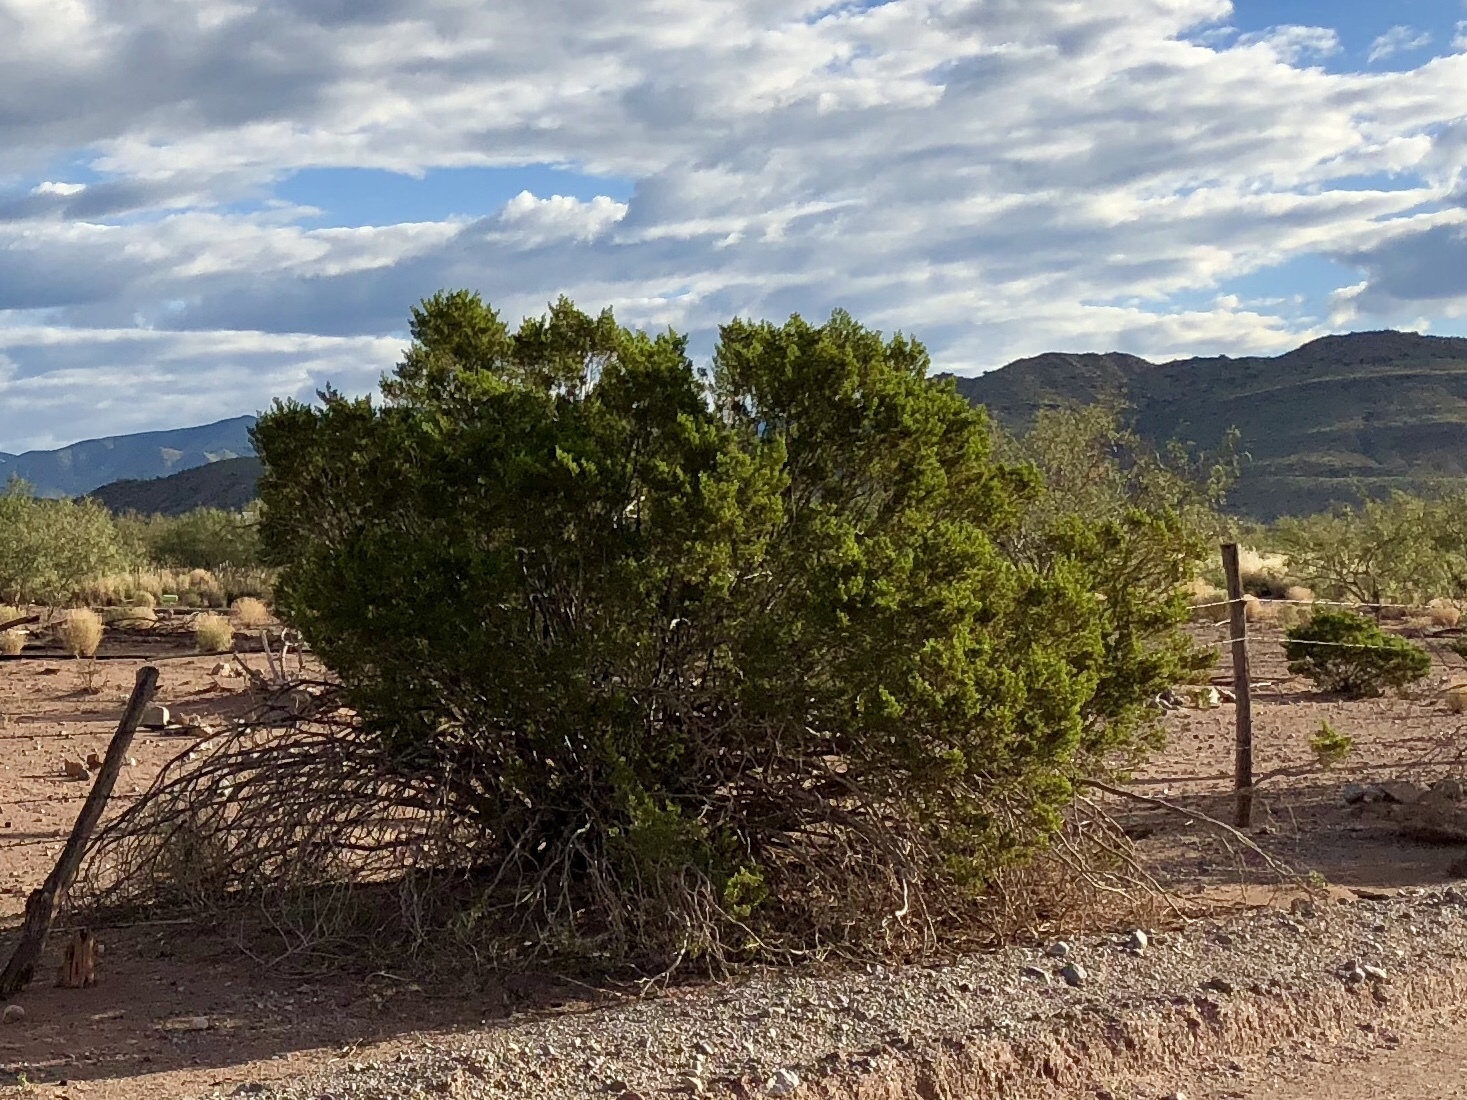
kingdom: Plantae
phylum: Tracheophyta
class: Magnoliopsida
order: Zygophyllales
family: Zygophyllaceae
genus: Larrea
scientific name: Larrea tridentata
